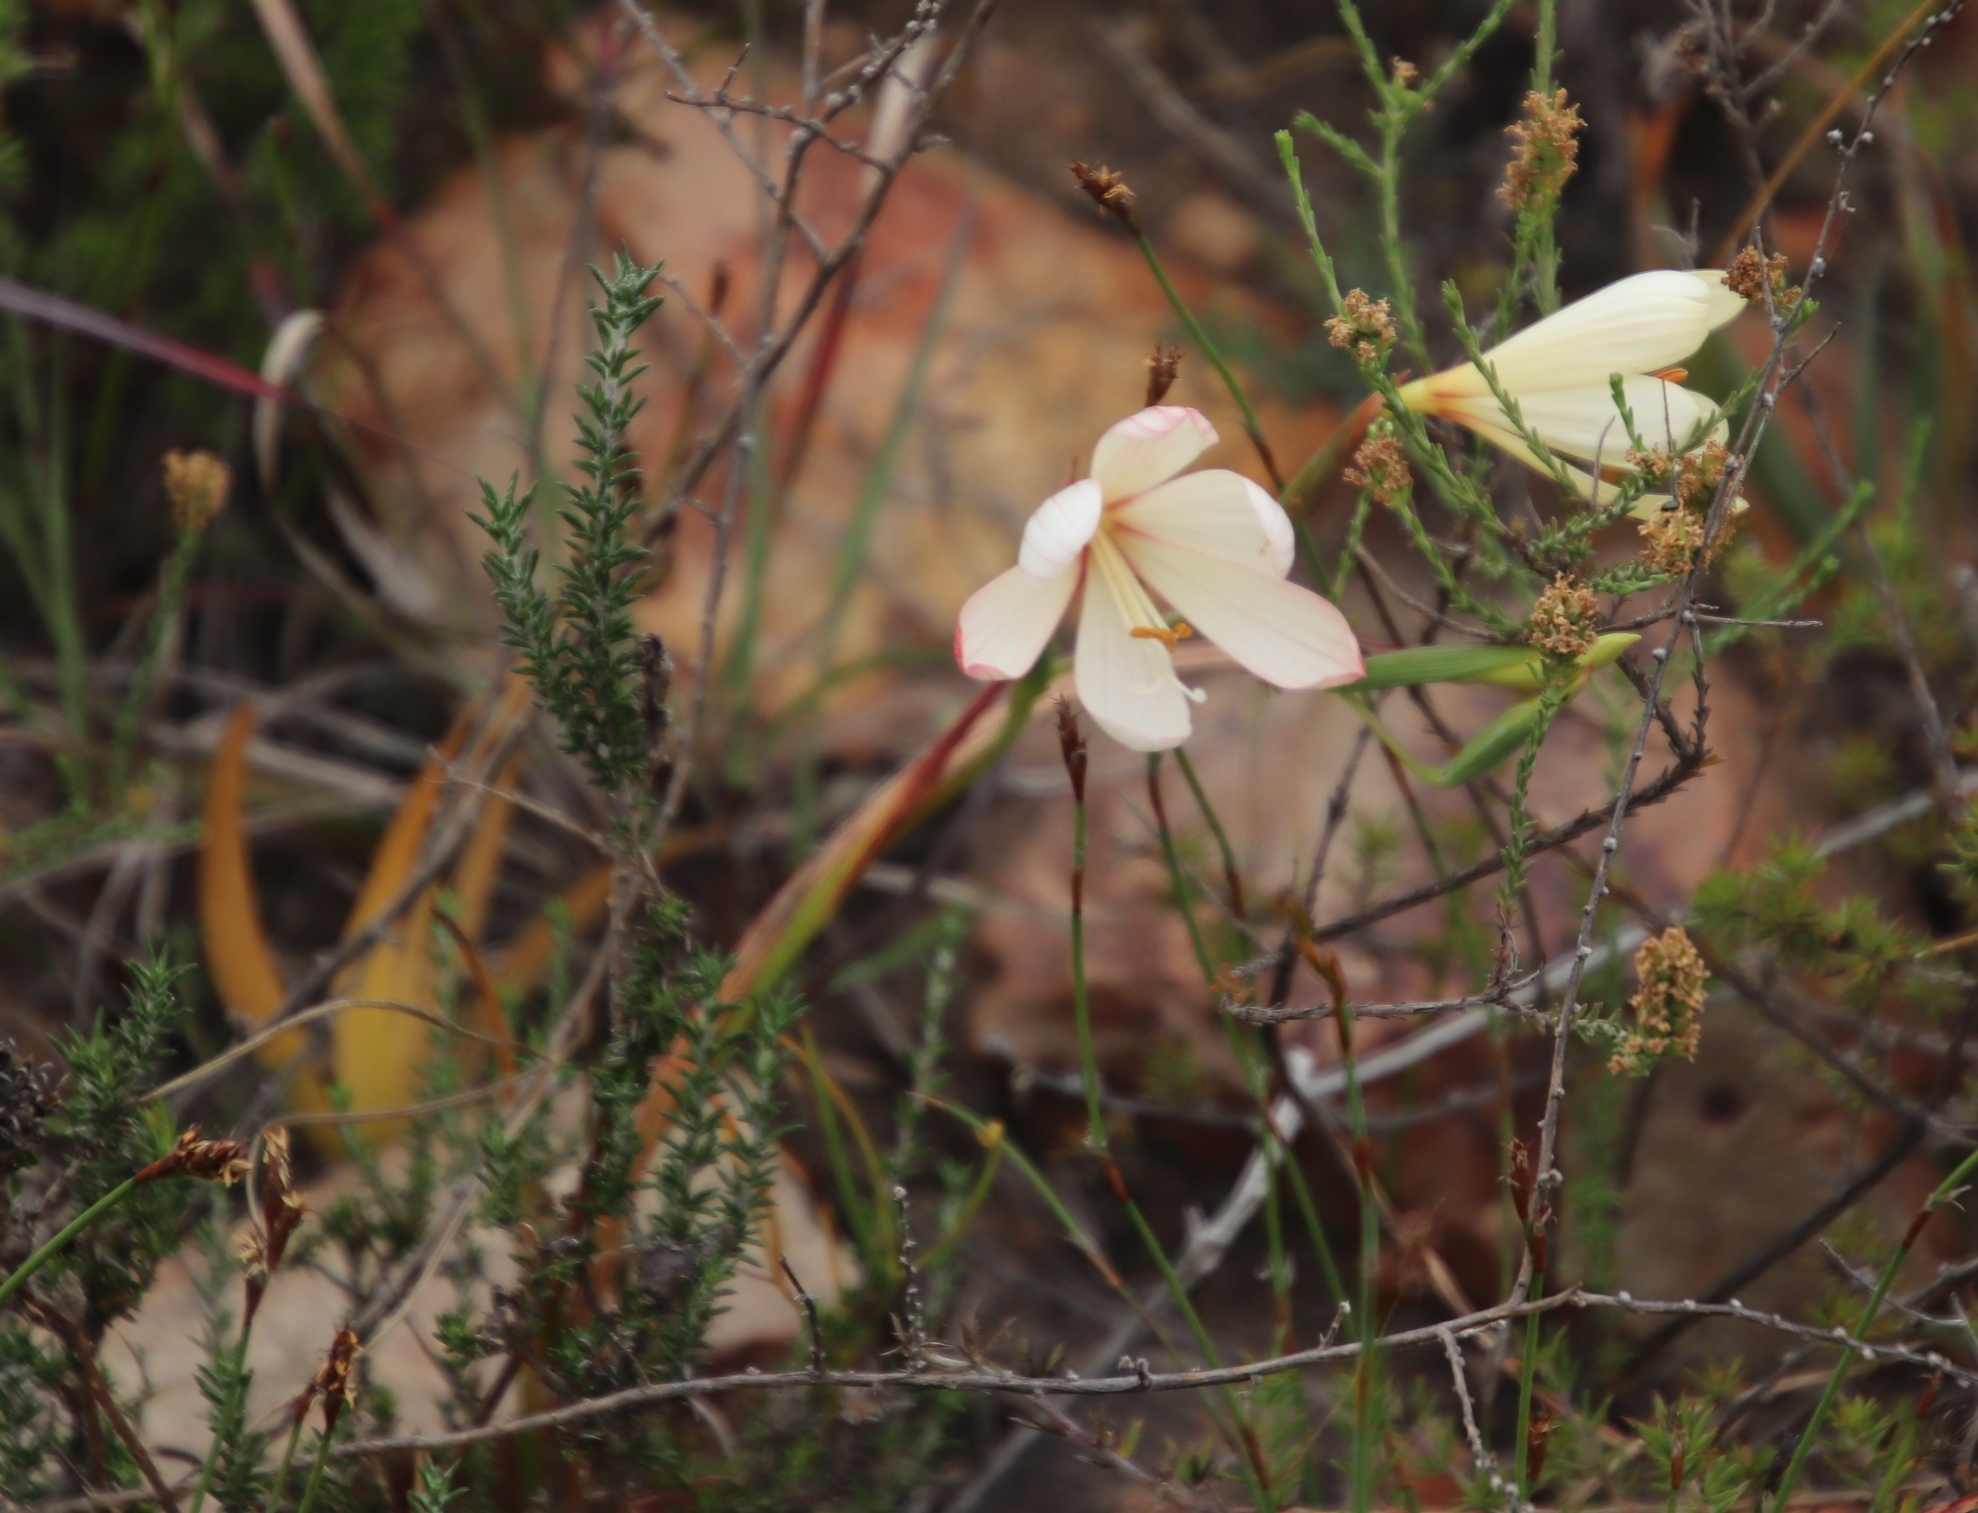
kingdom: Plantae
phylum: Tracheophyta
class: Liliopsida
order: Asparagales
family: Iridaceae
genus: Geissorhiza
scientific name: Geissorhiza schinzii
